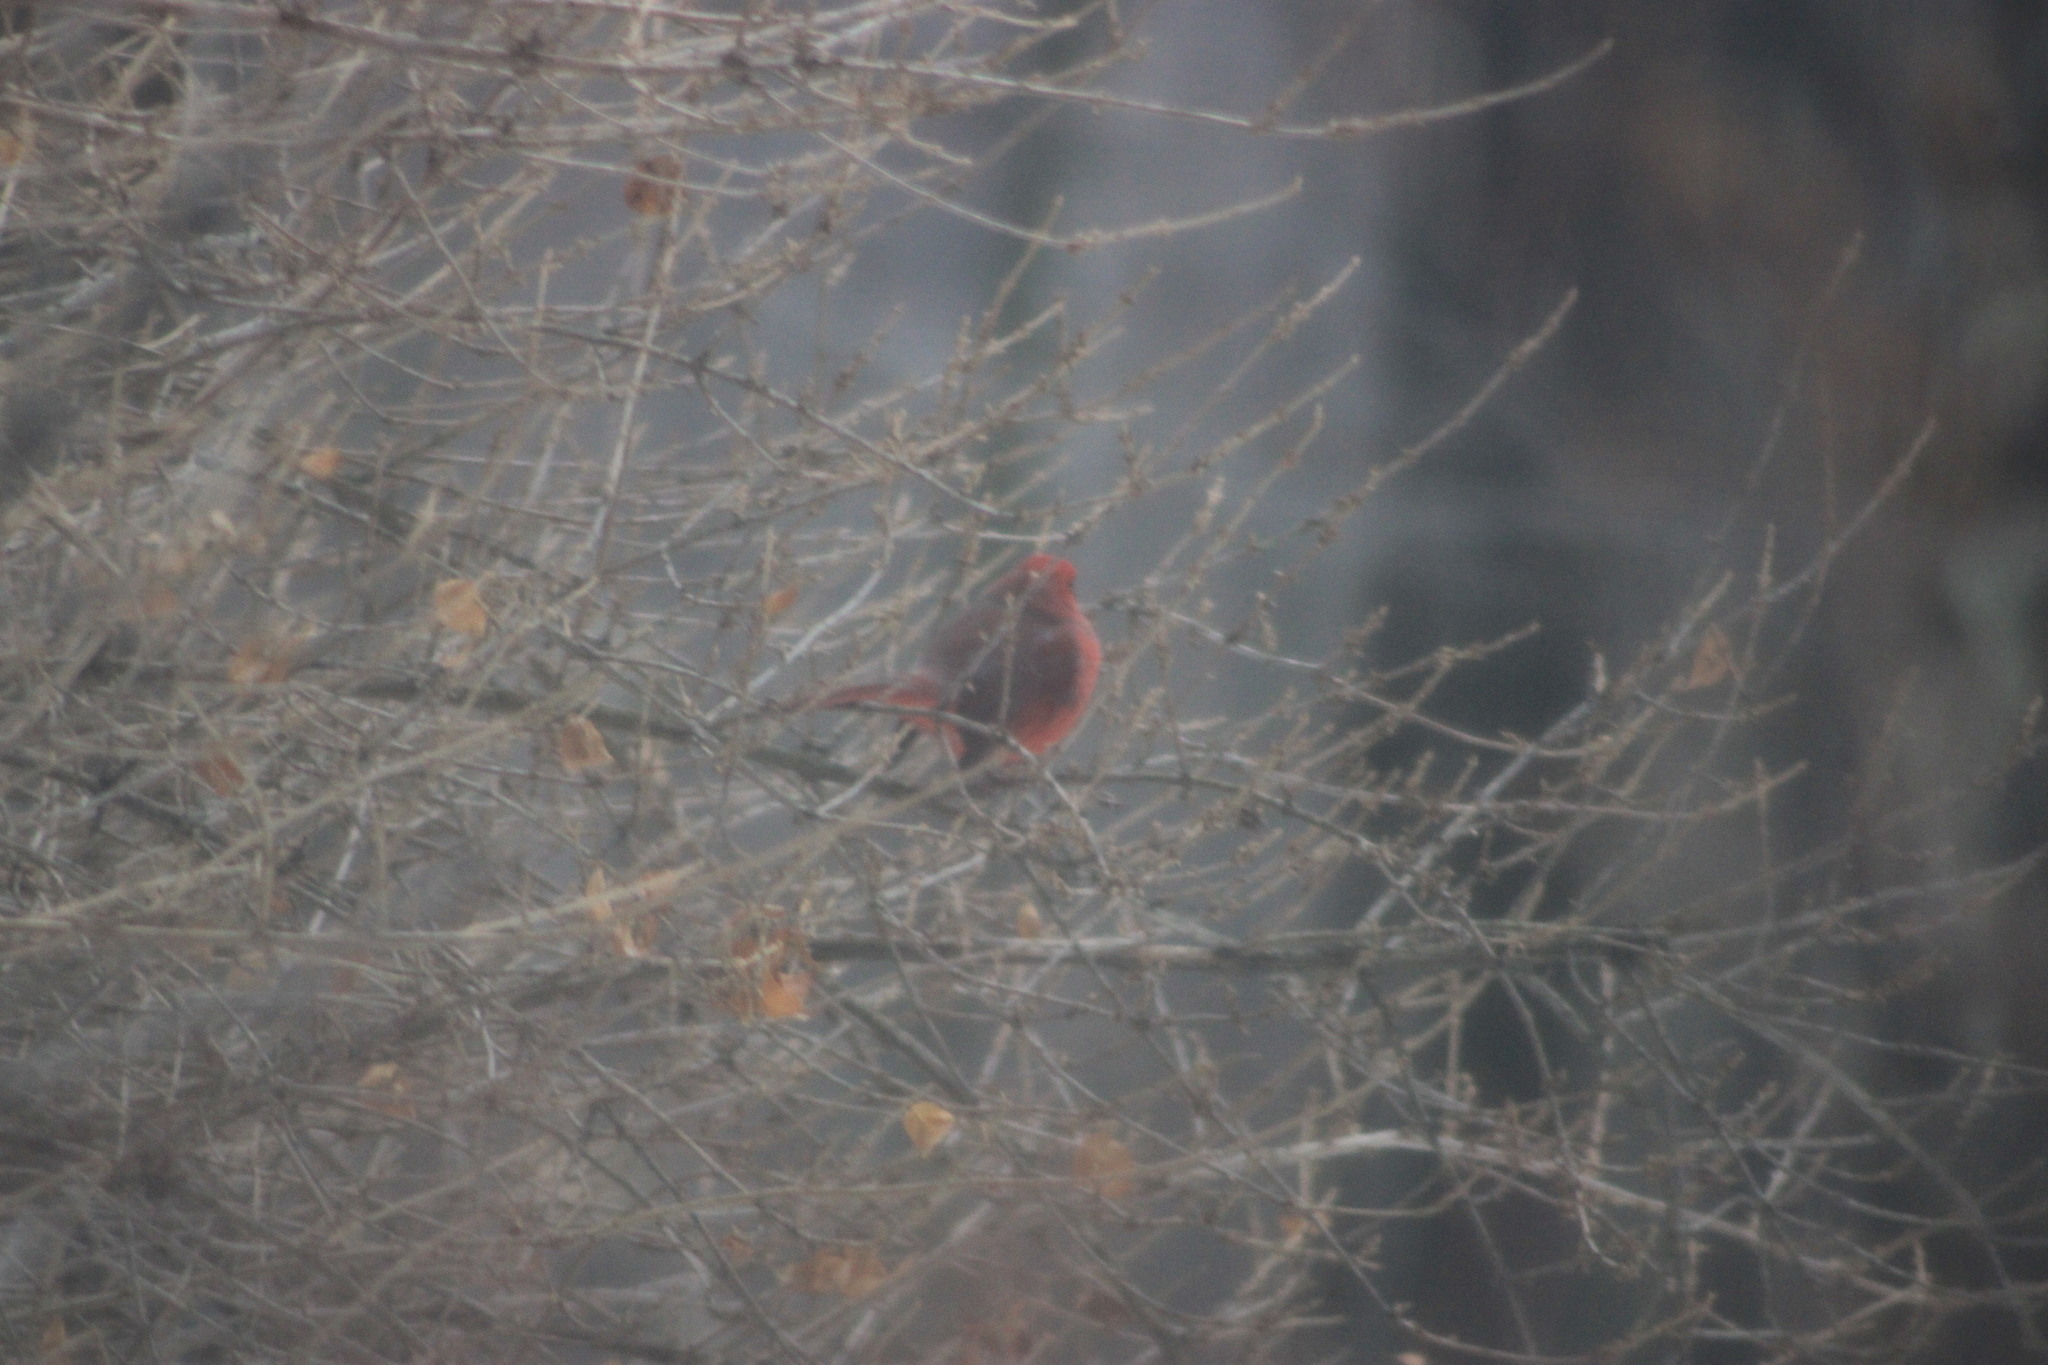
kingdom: Animalia
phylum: Chordata
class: Aves
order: Passeriformes
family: Cardinalidae
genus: Cardinalis
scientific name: Cardinalis cardinalis
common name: Northern cardinal
